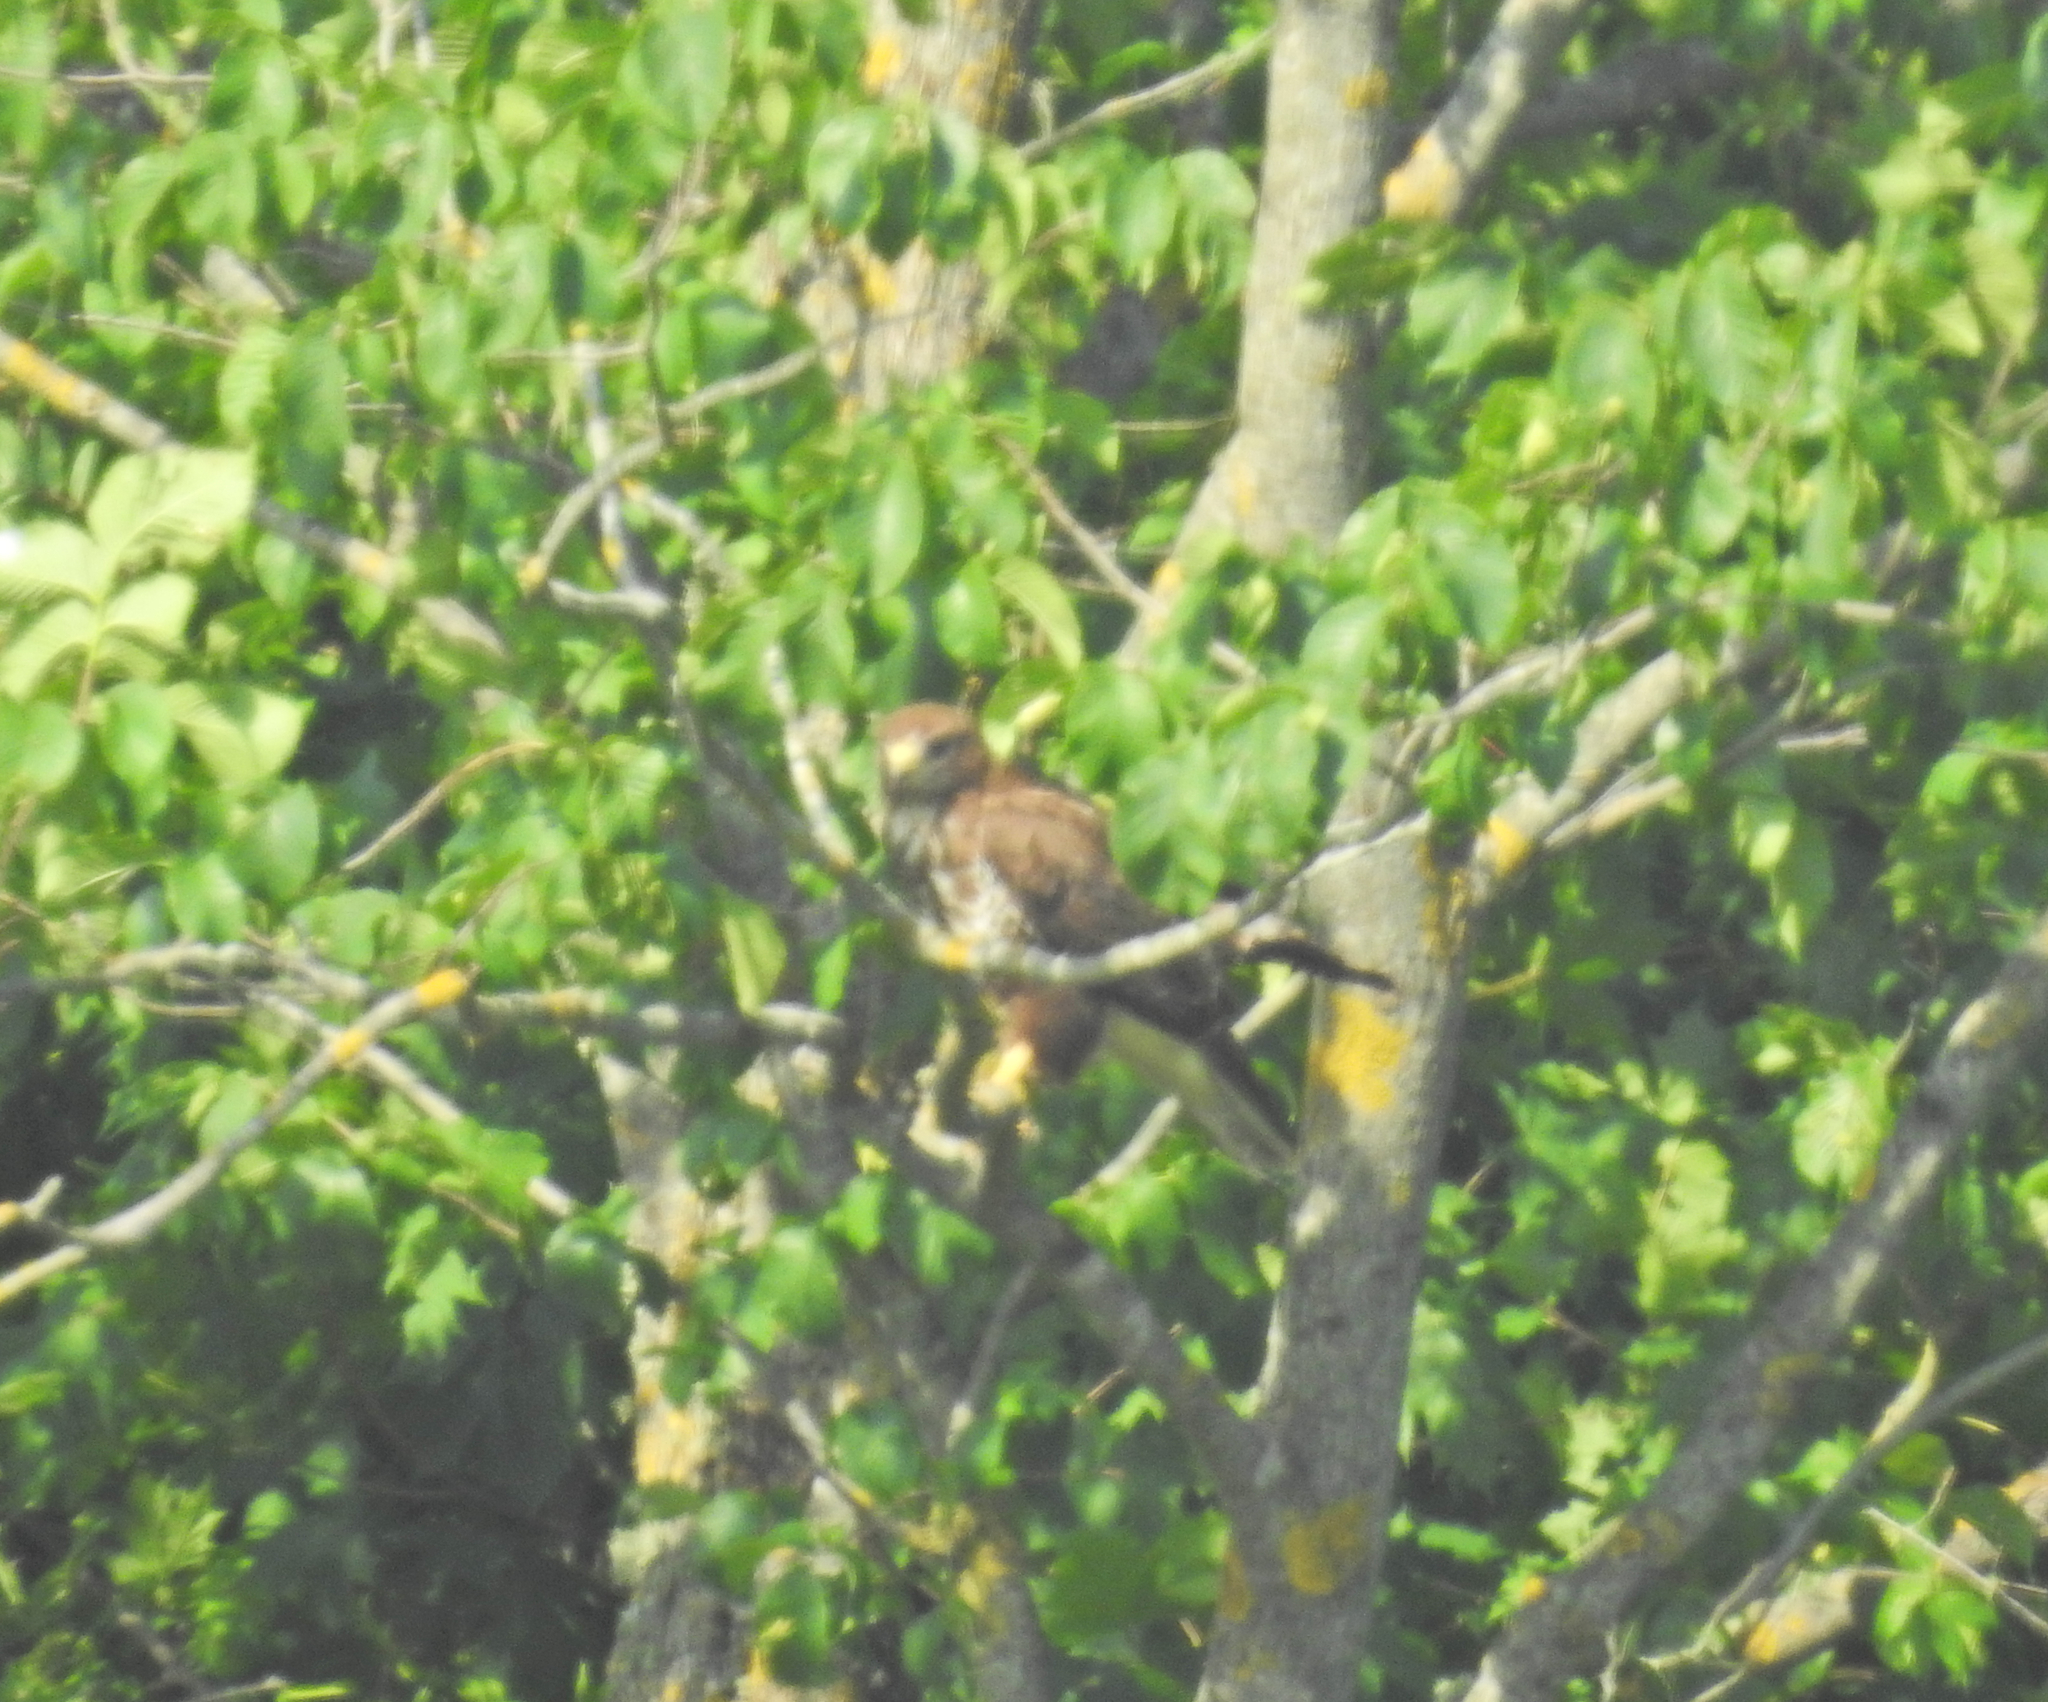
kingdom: Animalia
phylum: Chordata
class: Aves
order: Accipitriformes
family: Accipitridae
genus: Buteo
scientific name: Buteo buteo
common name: Common buzzard
